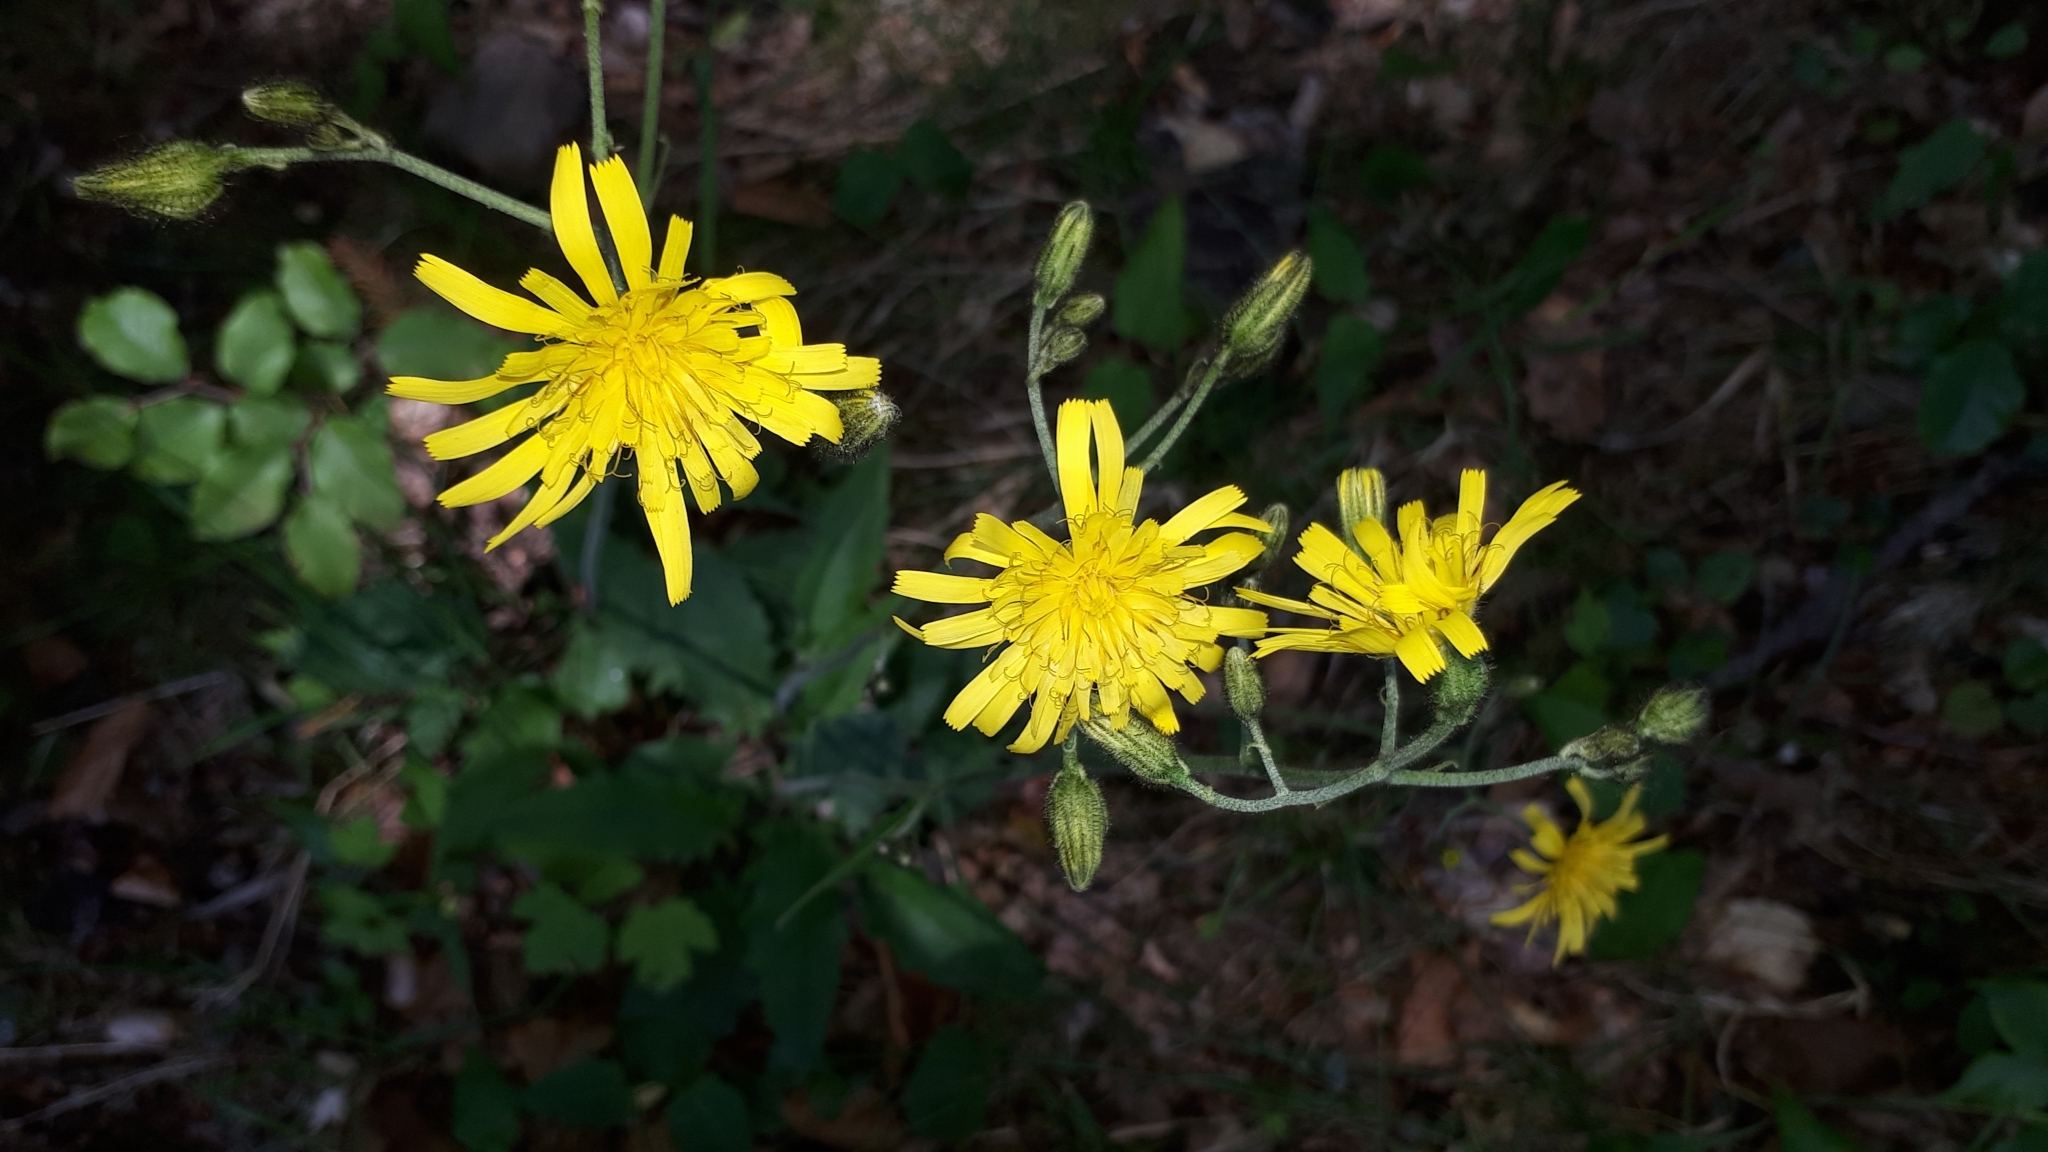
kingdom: Plantae
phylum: Tracheophyta
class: Magnoliopsida
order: Asterales
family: Asteraceae
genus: Hieracium
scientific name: Hieracium murorum
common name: Wall hawkweed
